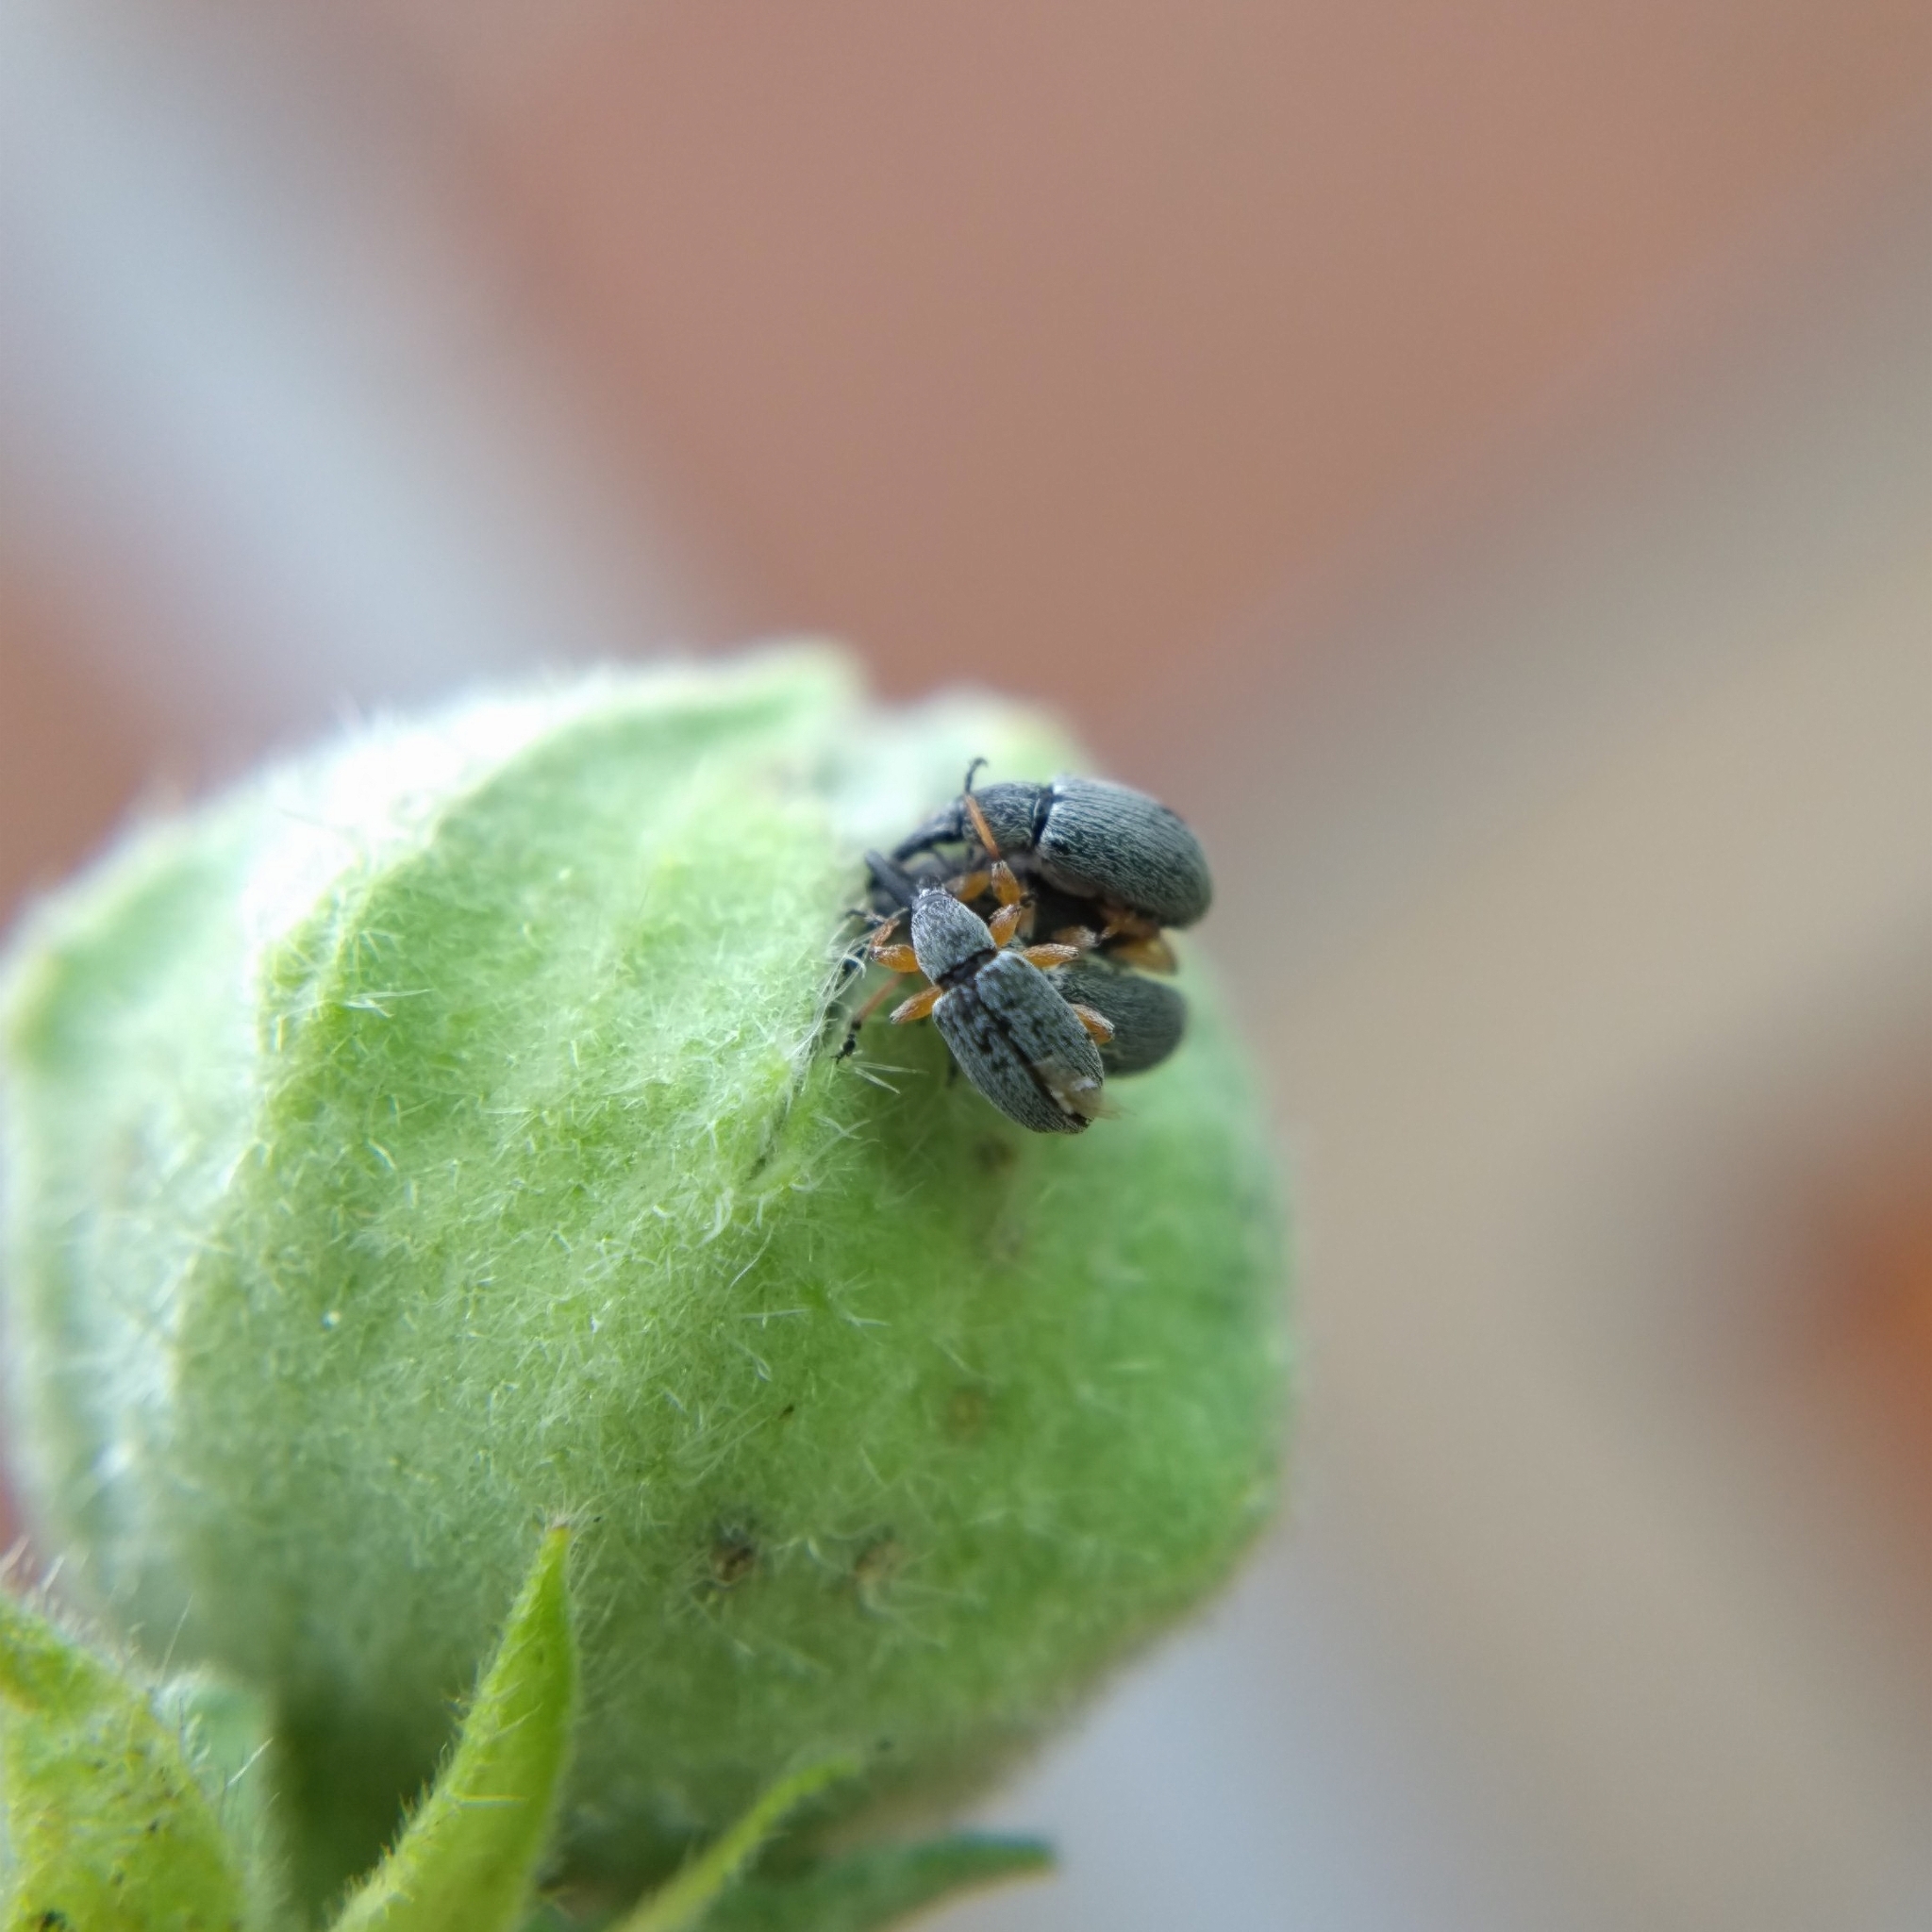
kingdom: Animalia
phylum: Arthropoda
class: Insecta
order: Coleoptera
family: Brentidae
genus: Rhopalapion
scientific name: Rhopalapion longirostre
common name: Hollyhock weevil
